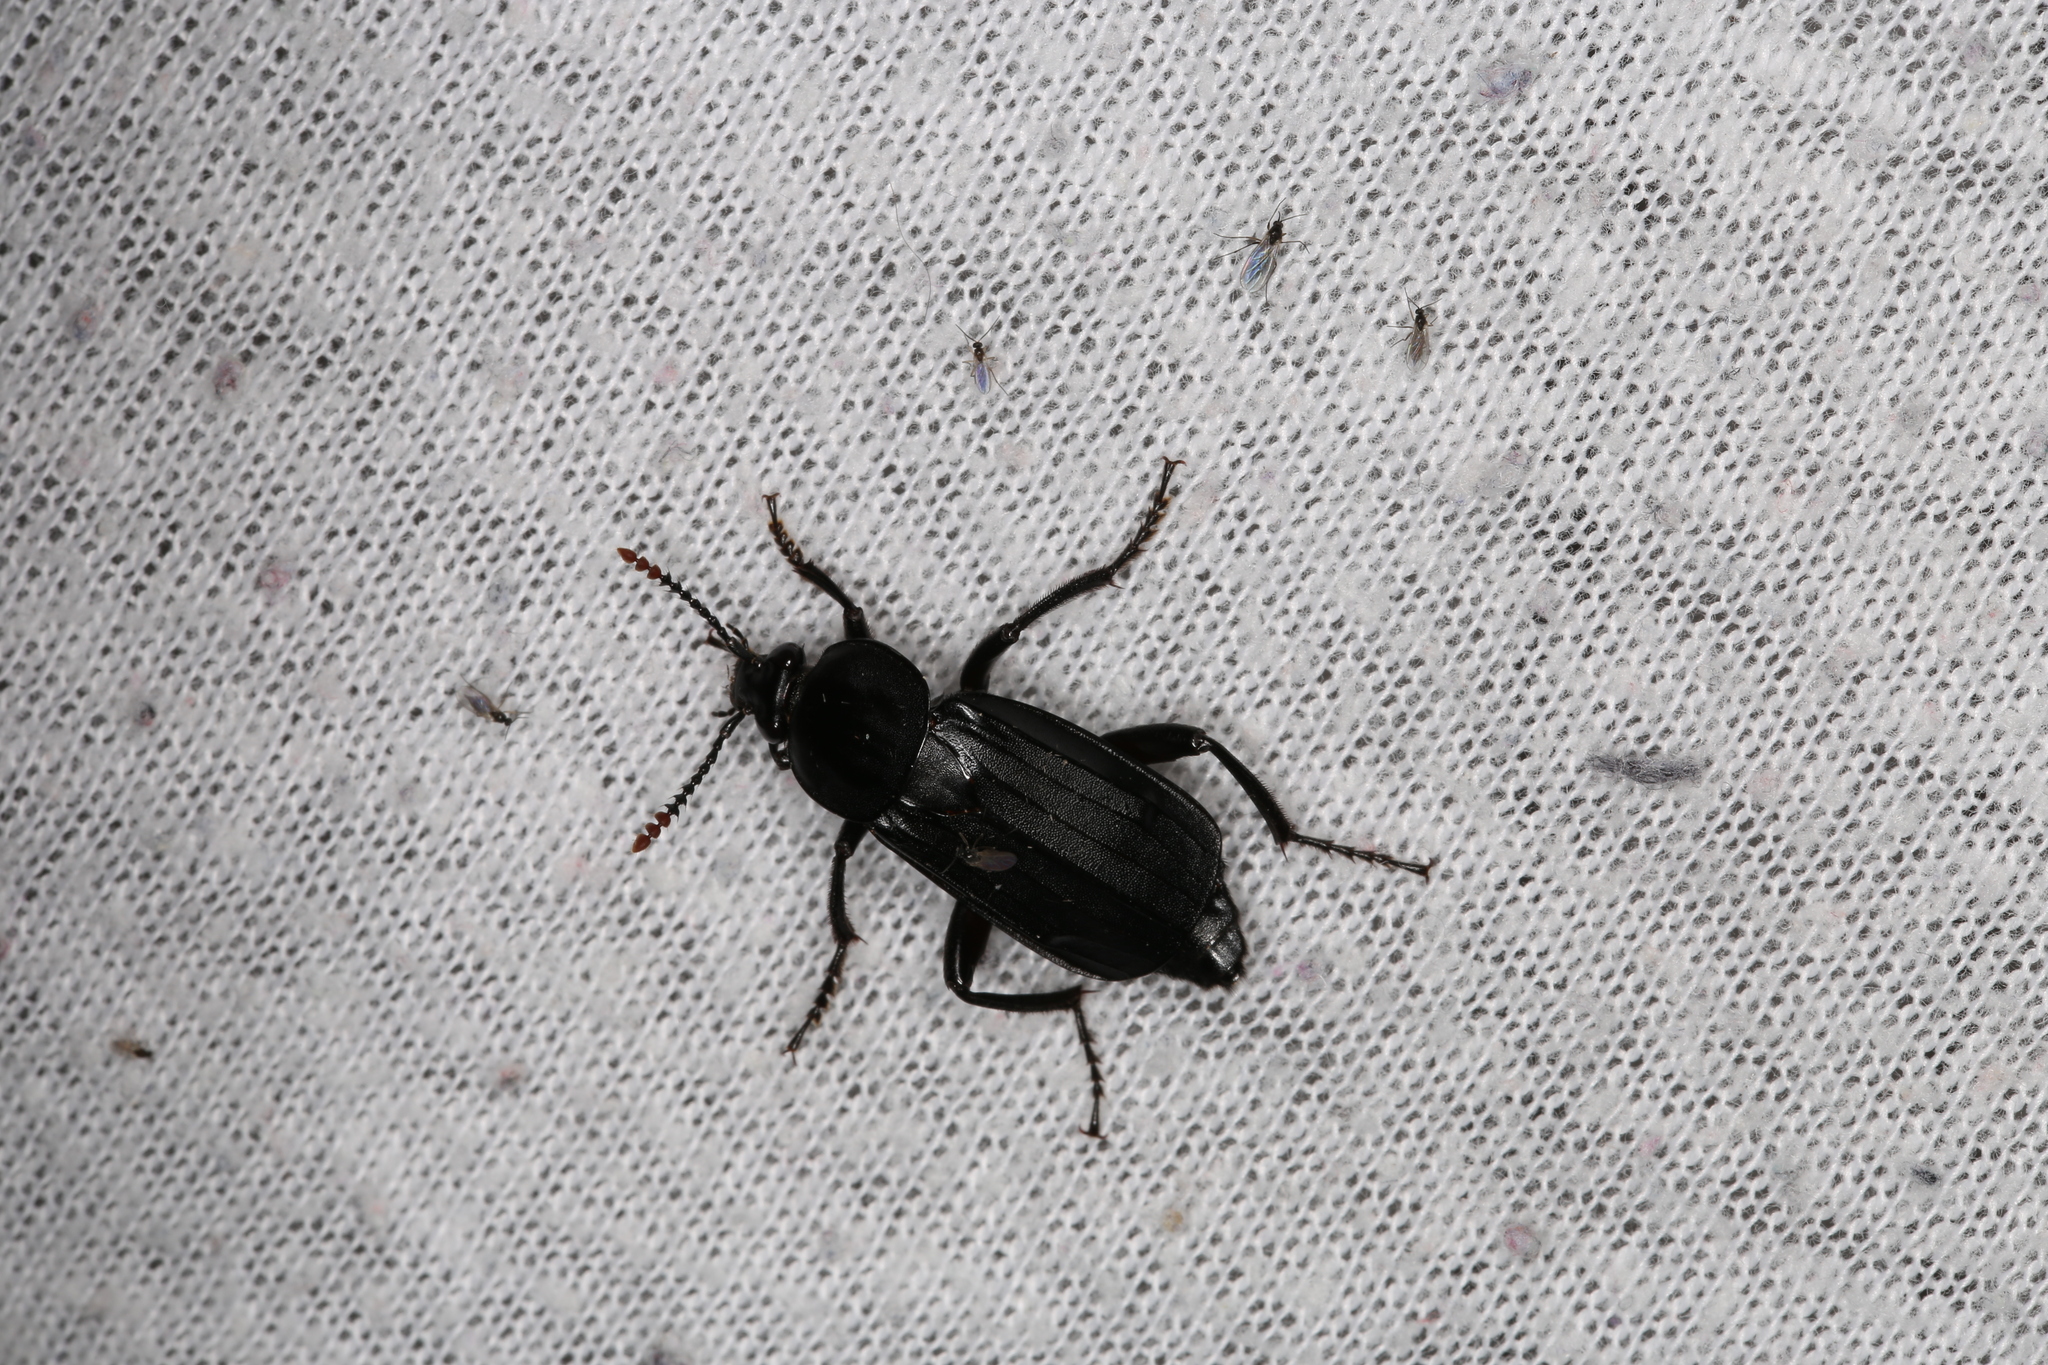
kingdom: Animalia
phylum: Arthropoda
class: Insecta
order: Coleoptera
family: Staphylinidae
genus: Necrodes
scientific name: Necrodes littoralis
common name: Shore sexton beetle
